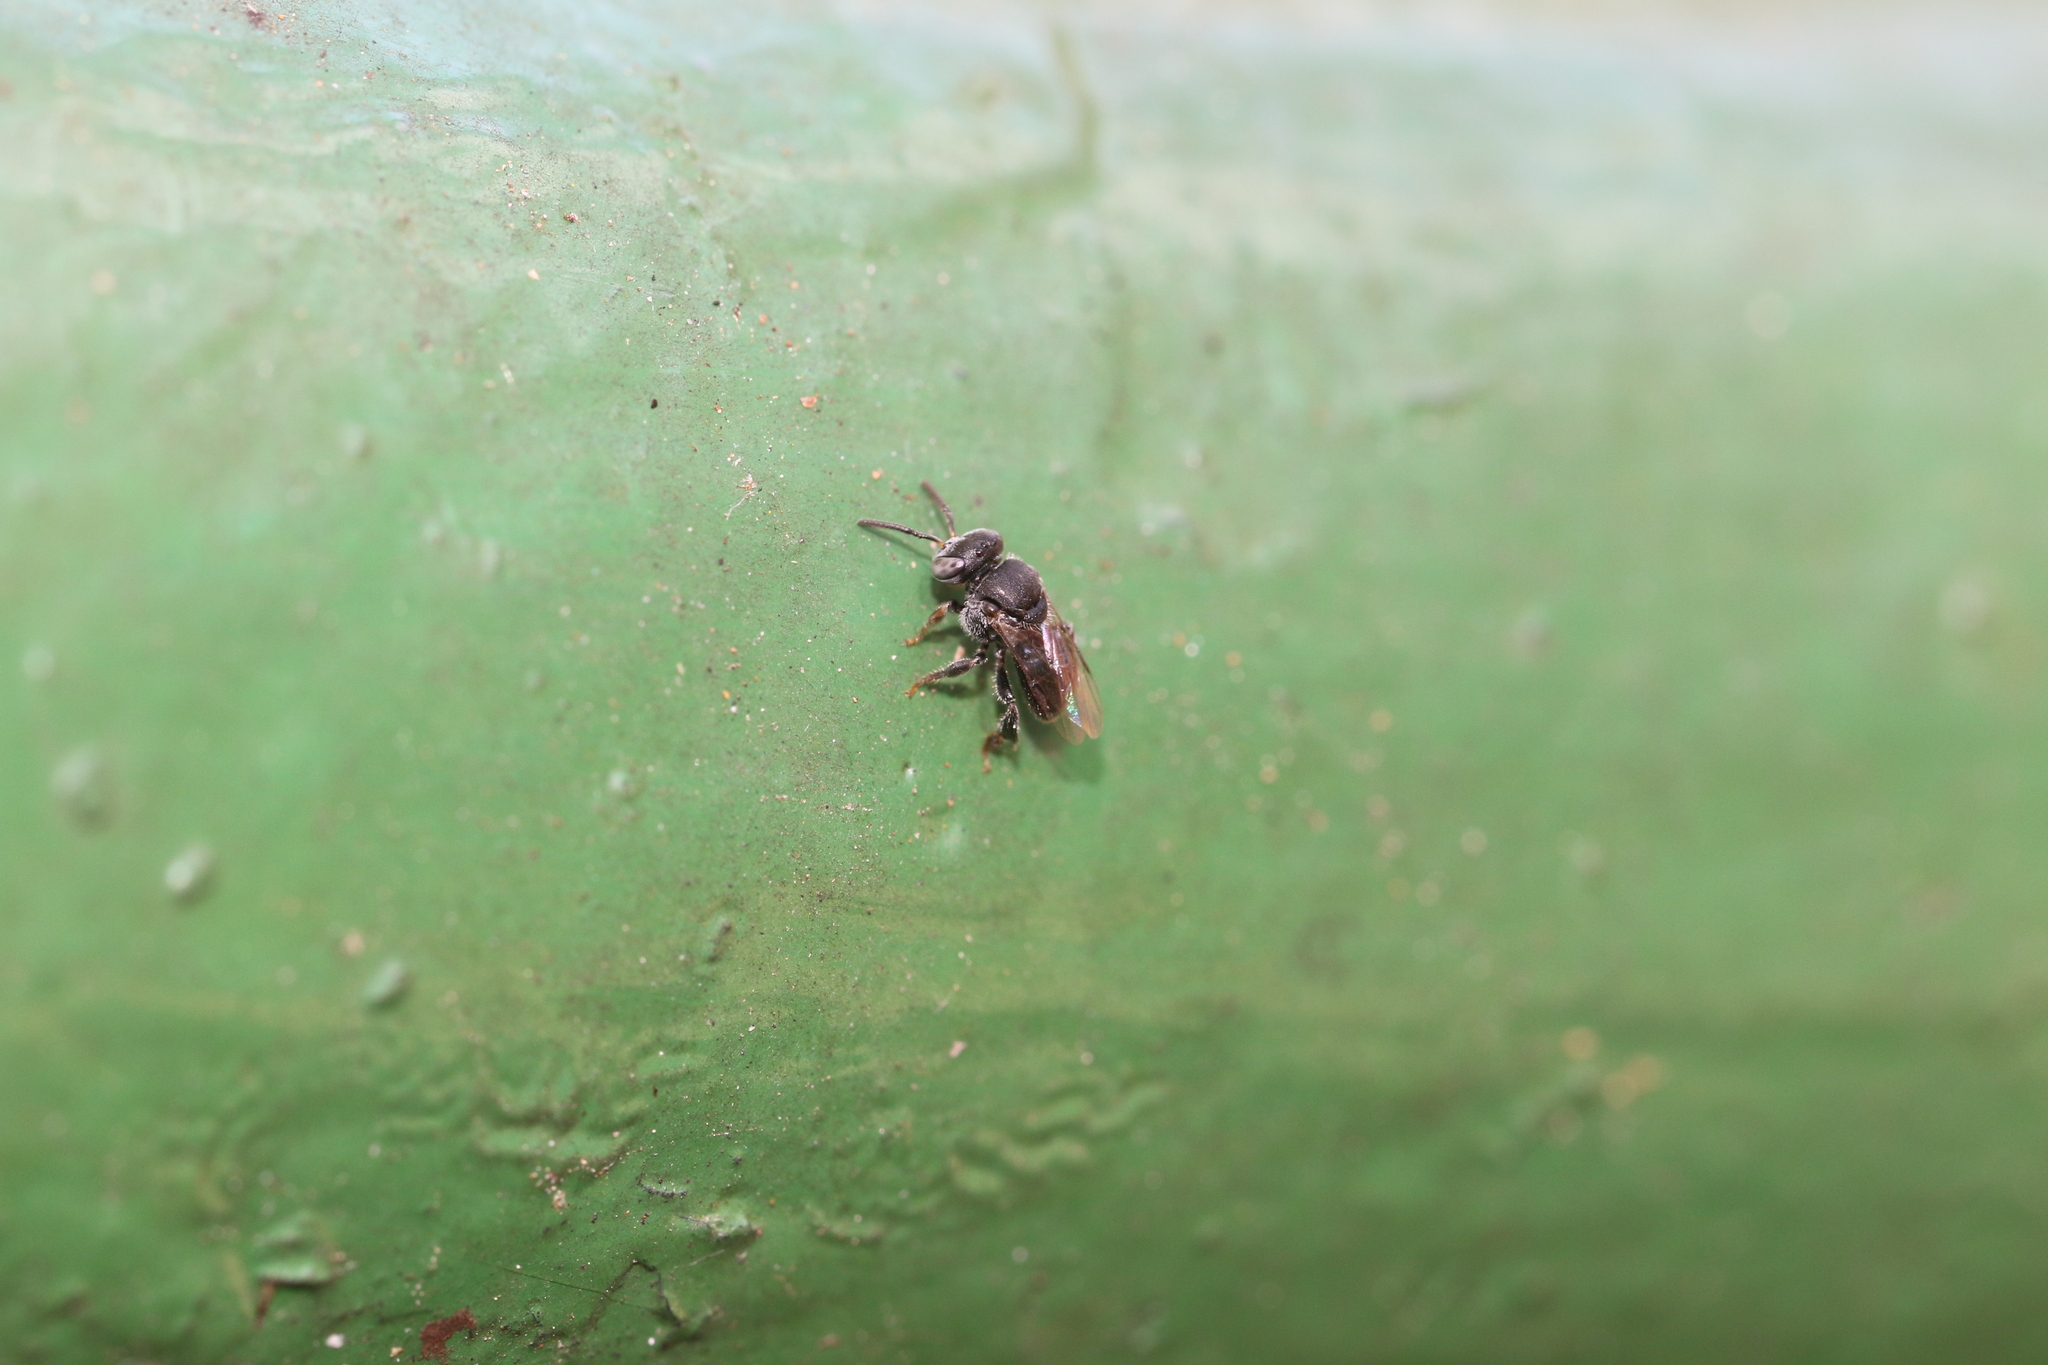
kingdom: Animalia
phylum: Arthropoda
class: Insecta
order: Hymenoptera
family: Apidae
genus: Friesella
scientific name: Friesella schrottkyi
